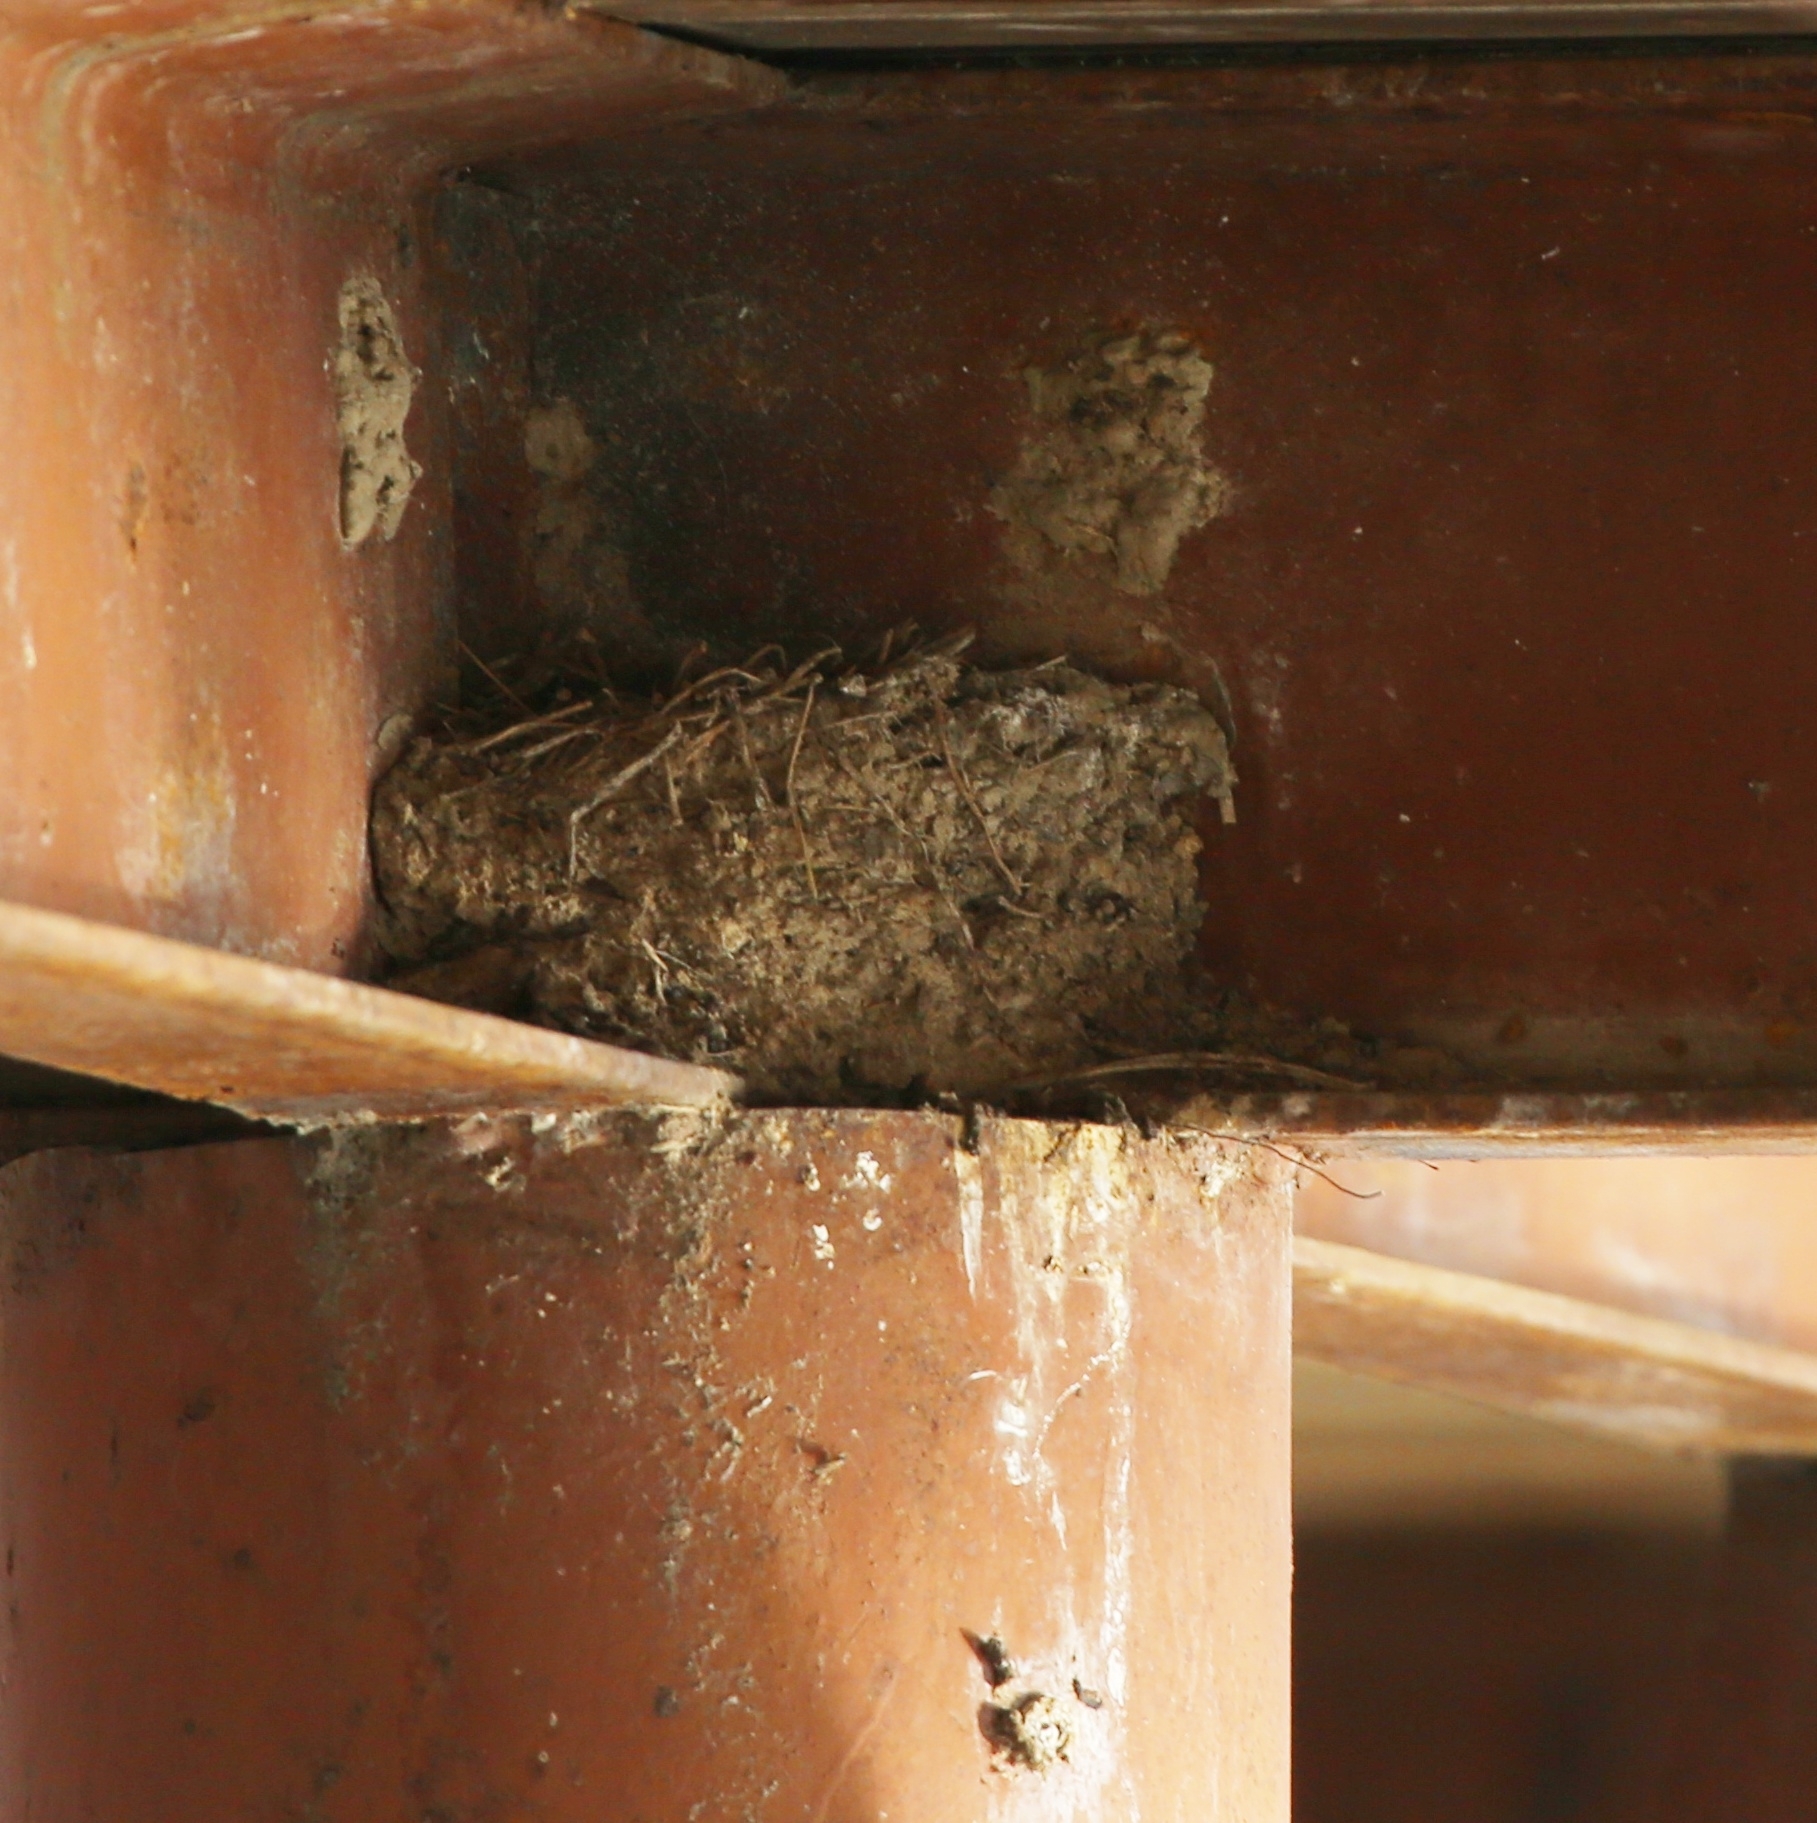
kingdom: Animalia
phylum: Chordata
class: Aves
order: Passeriformes
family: Hirundinidae
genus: Hirundo
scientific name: Hirundo rustica
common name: Barn swallow
